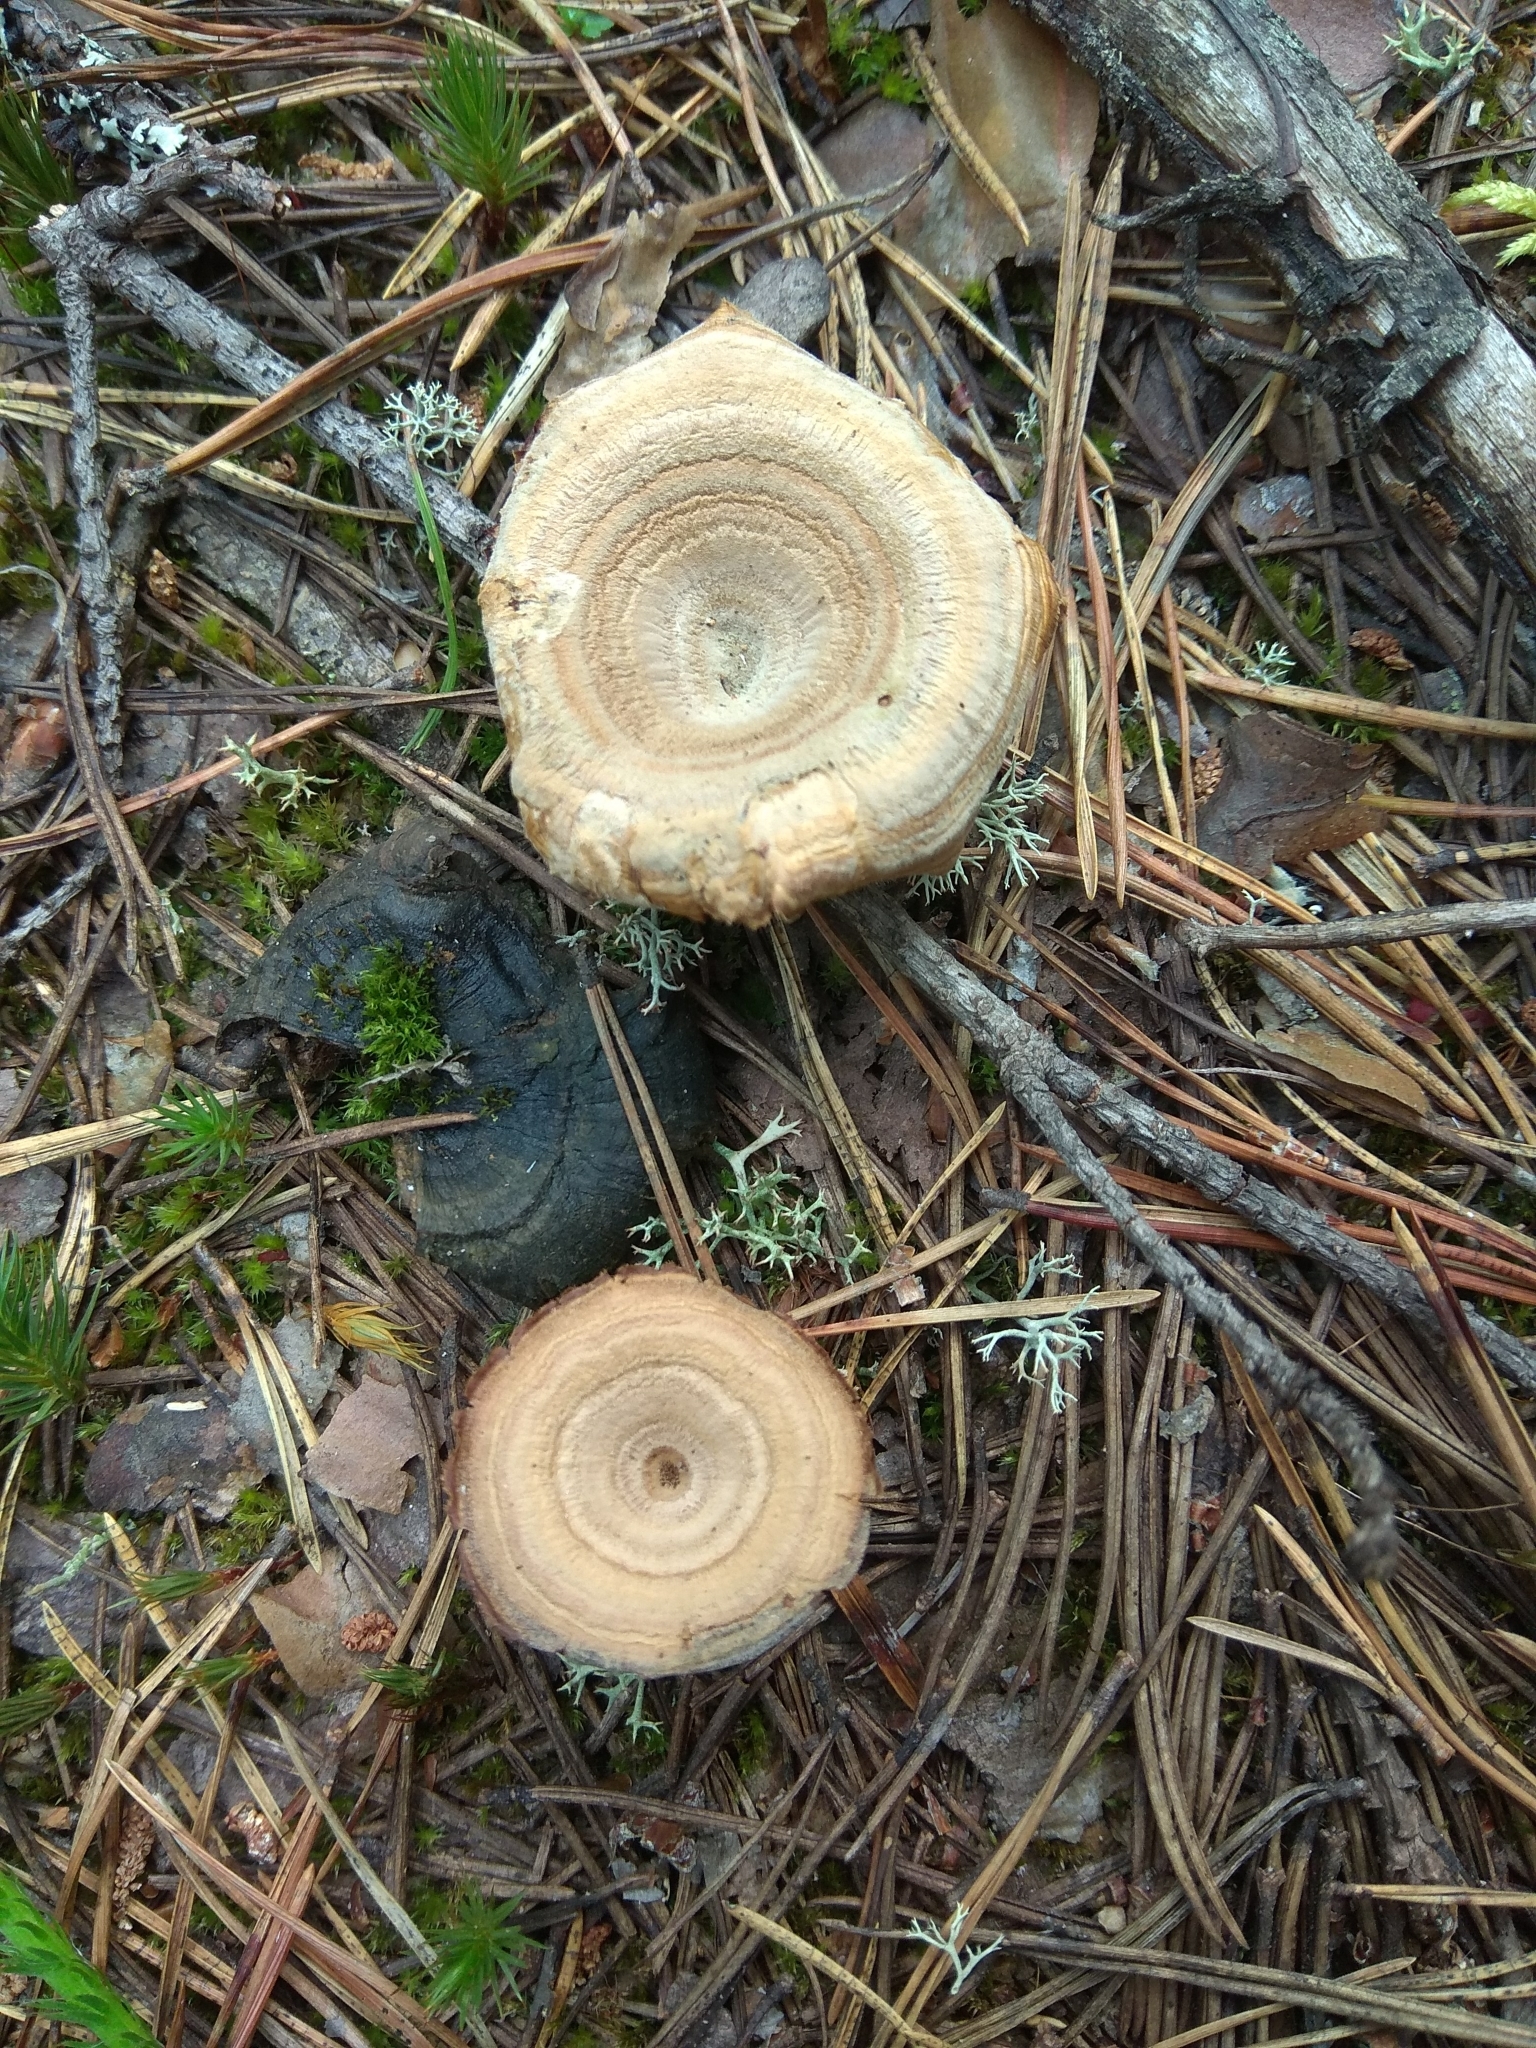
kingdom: Fungi
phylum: Basidiomycota
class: Agaricomycetes
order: Hymenochaetales
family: Hymenochaetaceae
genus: Coltricia
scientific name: Coltricia perennis
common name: Tiger's eye
